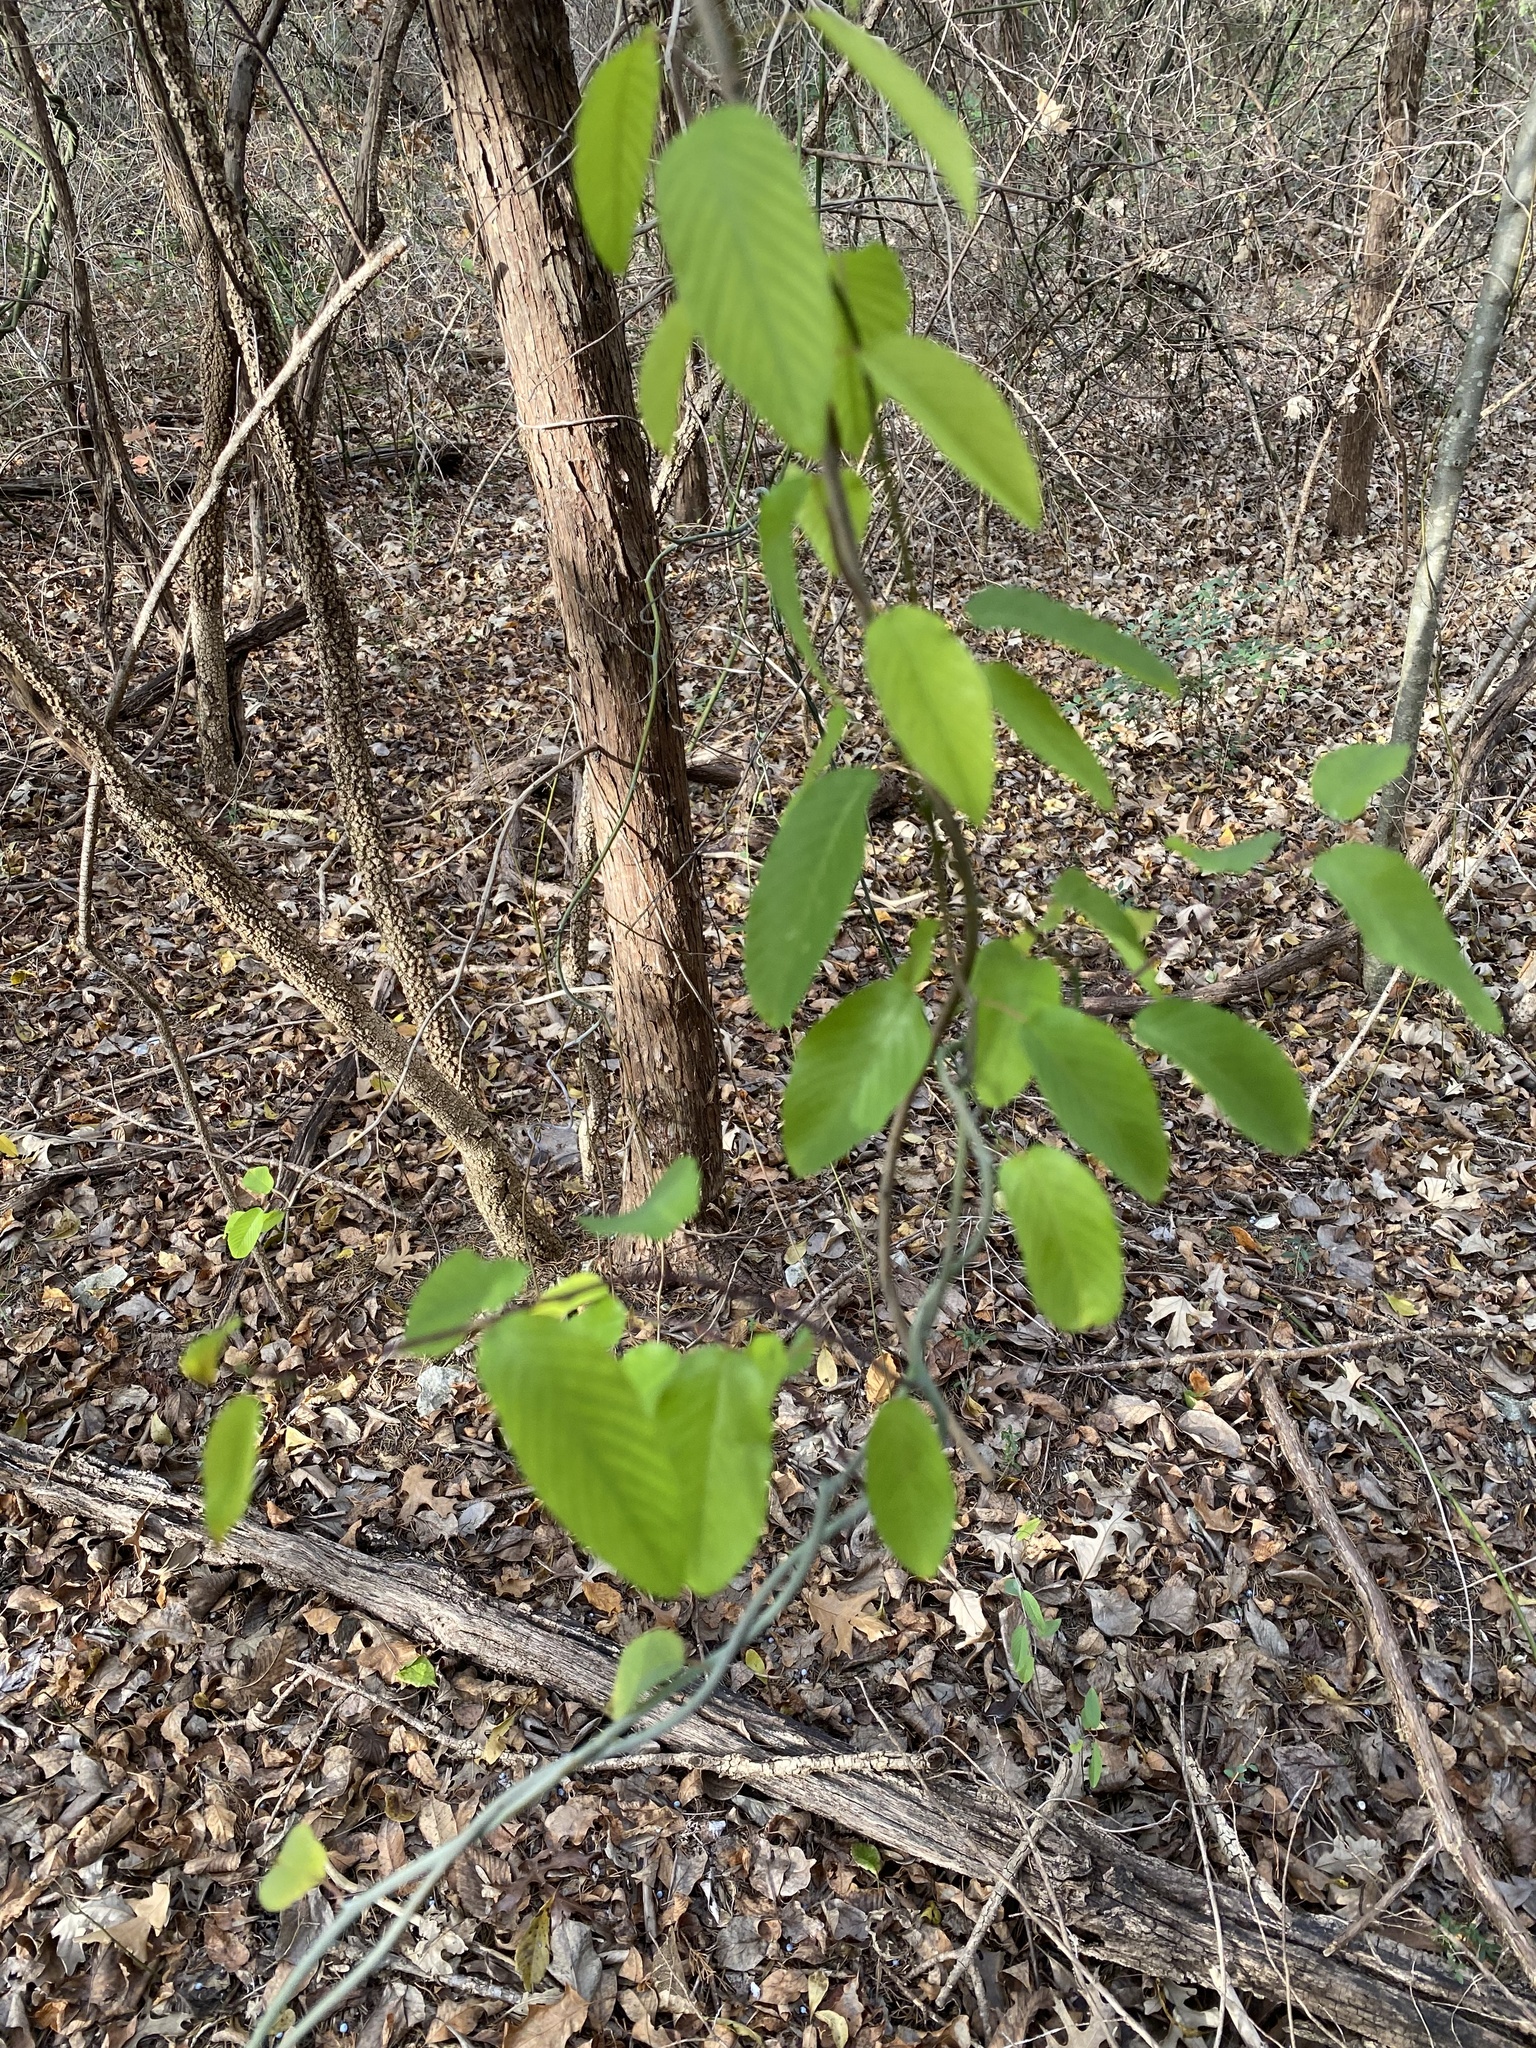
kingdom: Plantae
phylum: Tracheophyta
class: Magnoliopsida
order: Rosales
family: Rhamnaceae
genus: Berchemia
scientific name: Berchemia scandens
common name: Supplejack
